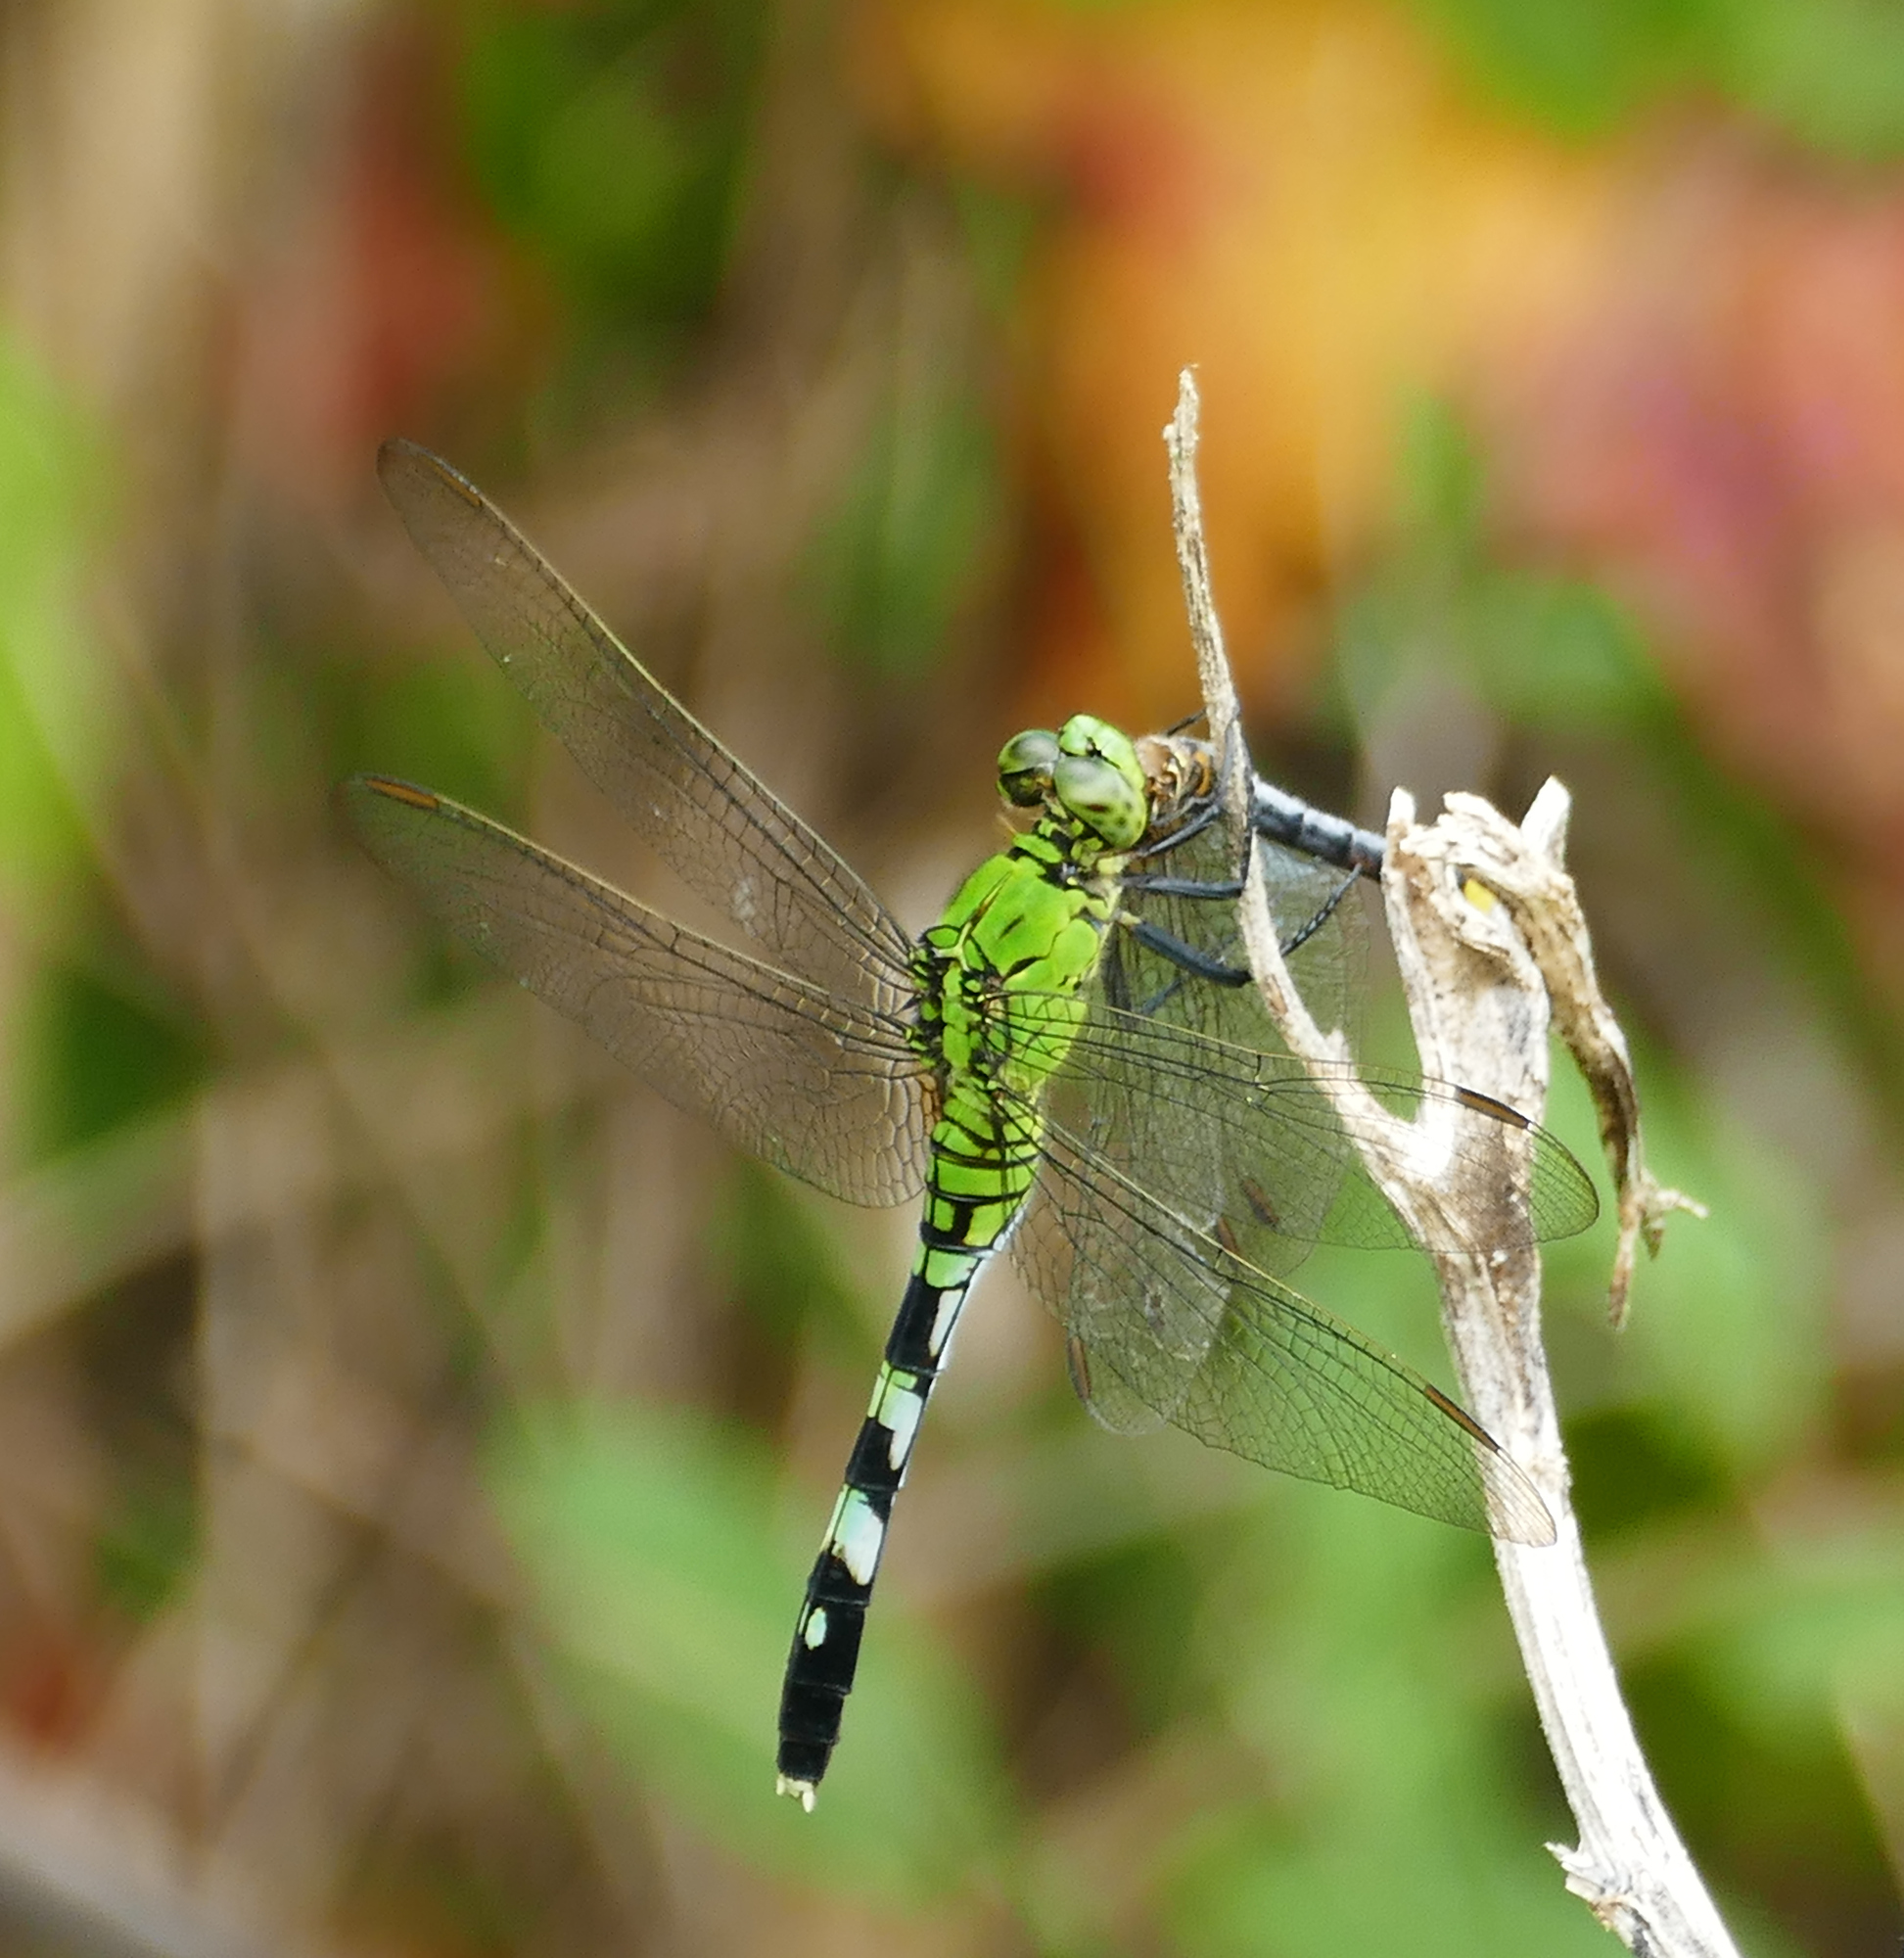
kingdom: Animalia
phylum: Arthropoda
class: Insecta
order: Odonata
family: Libellulidae
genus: Erythemis
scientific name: Erythemis simplicicollis
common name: Eastern pondhawk
